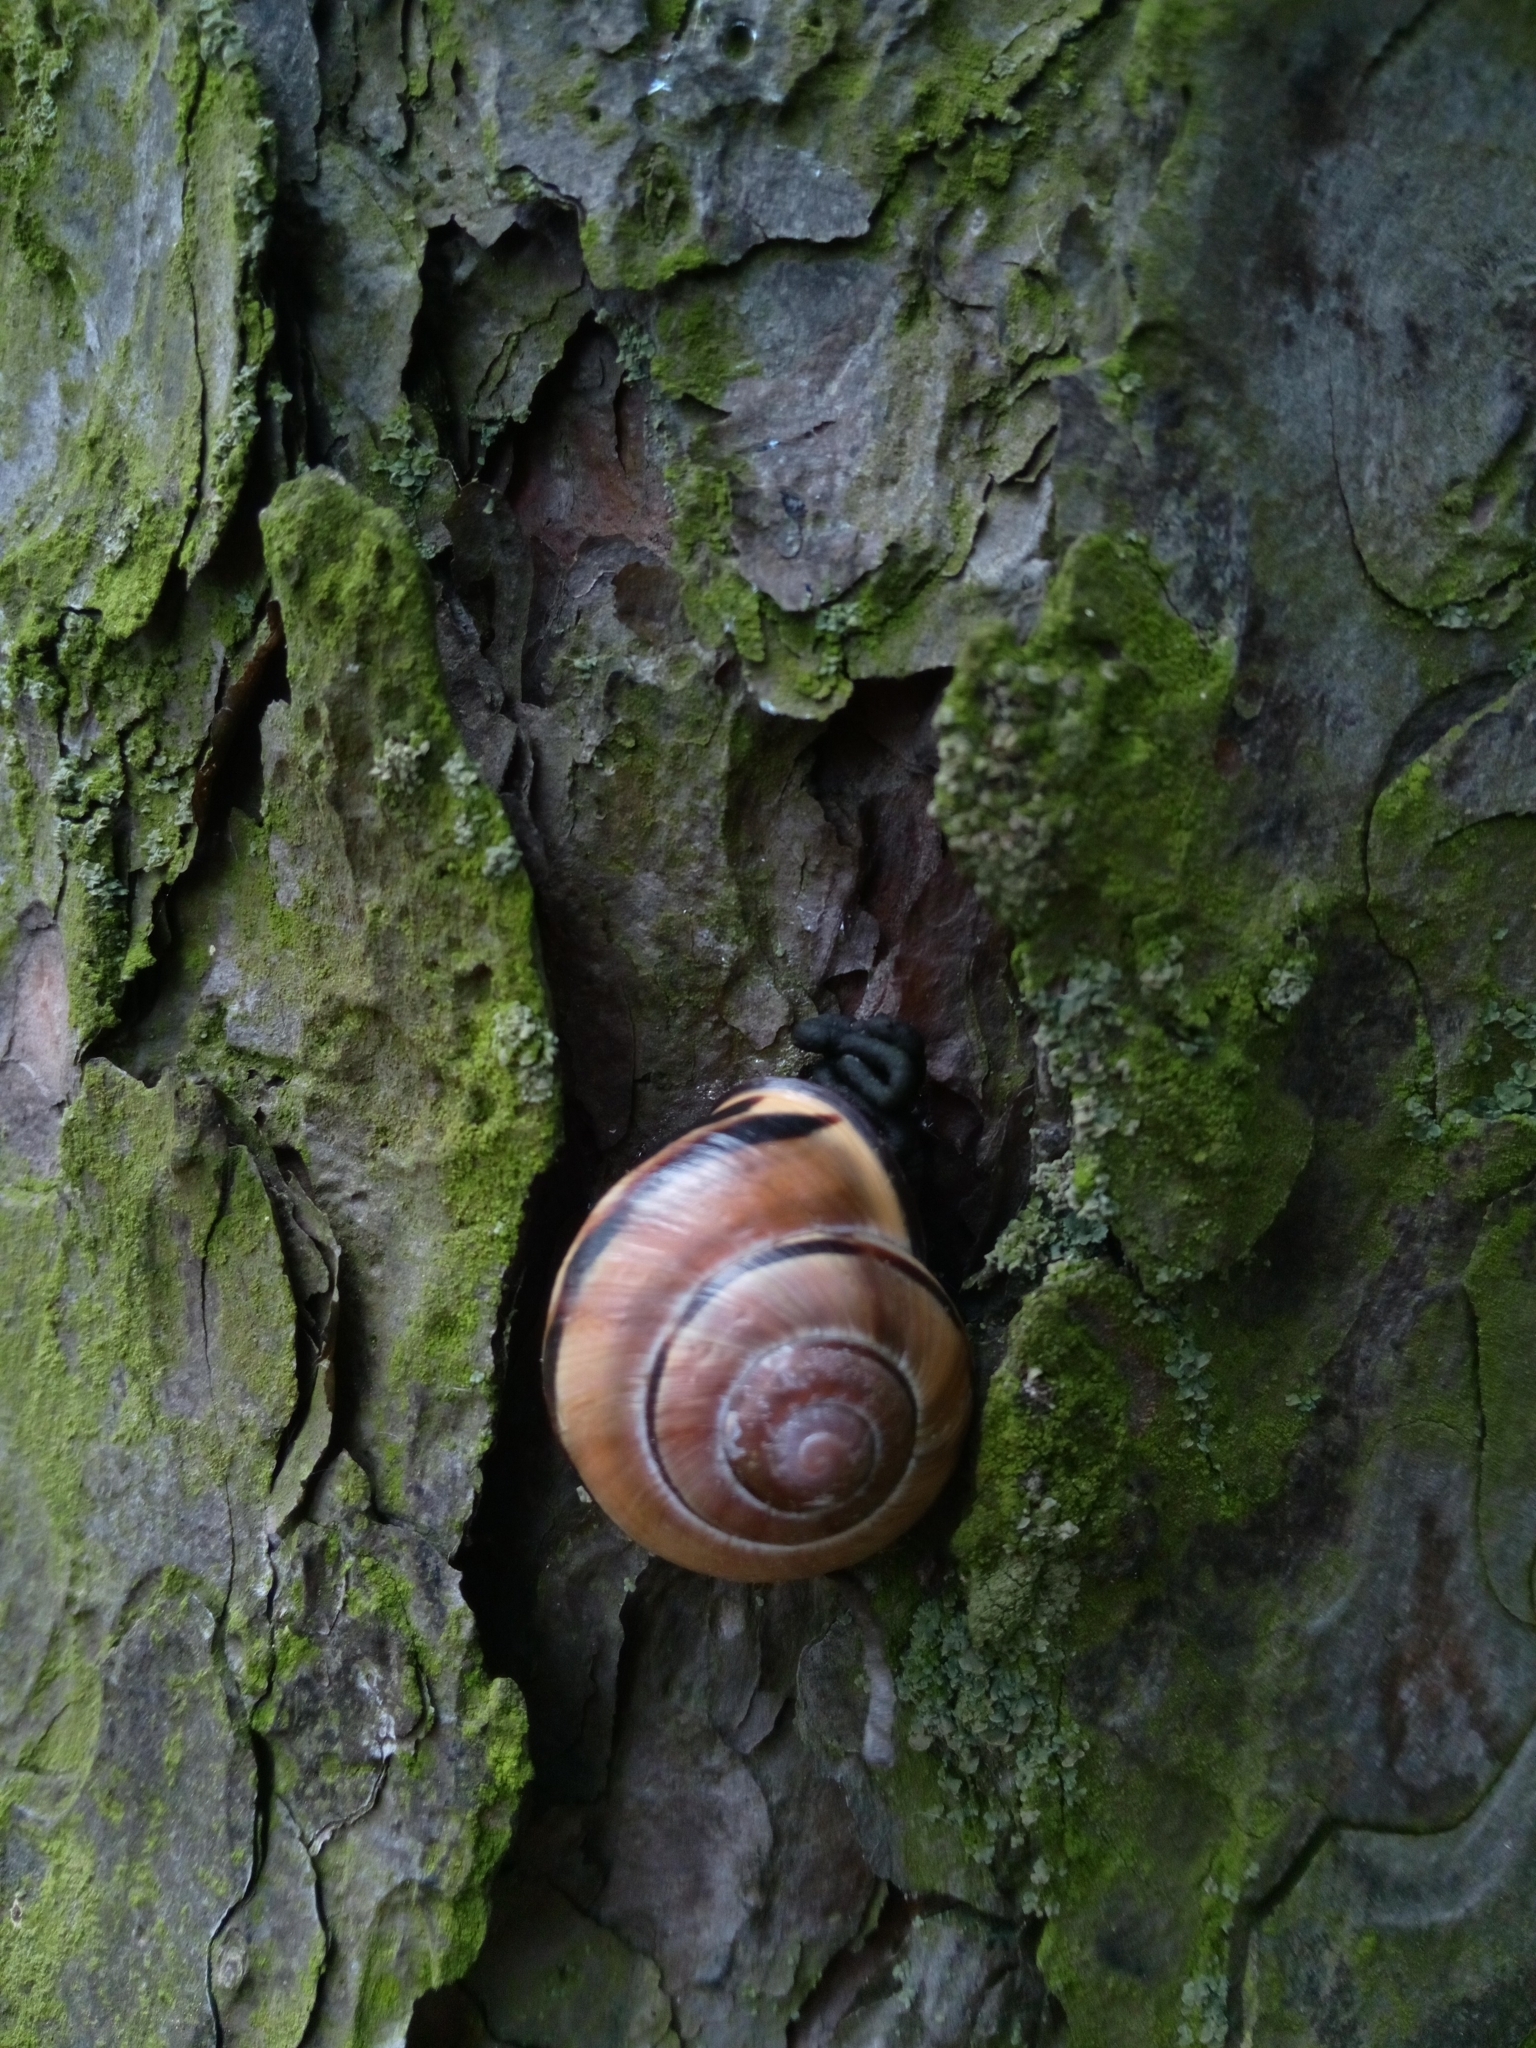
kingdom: Animalia
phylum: Mollusca
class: Gastropoda
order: Stylommatophora
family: Helicidae
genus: Cepaea
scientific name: Cepaea nemoralis
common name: Grovesnail
